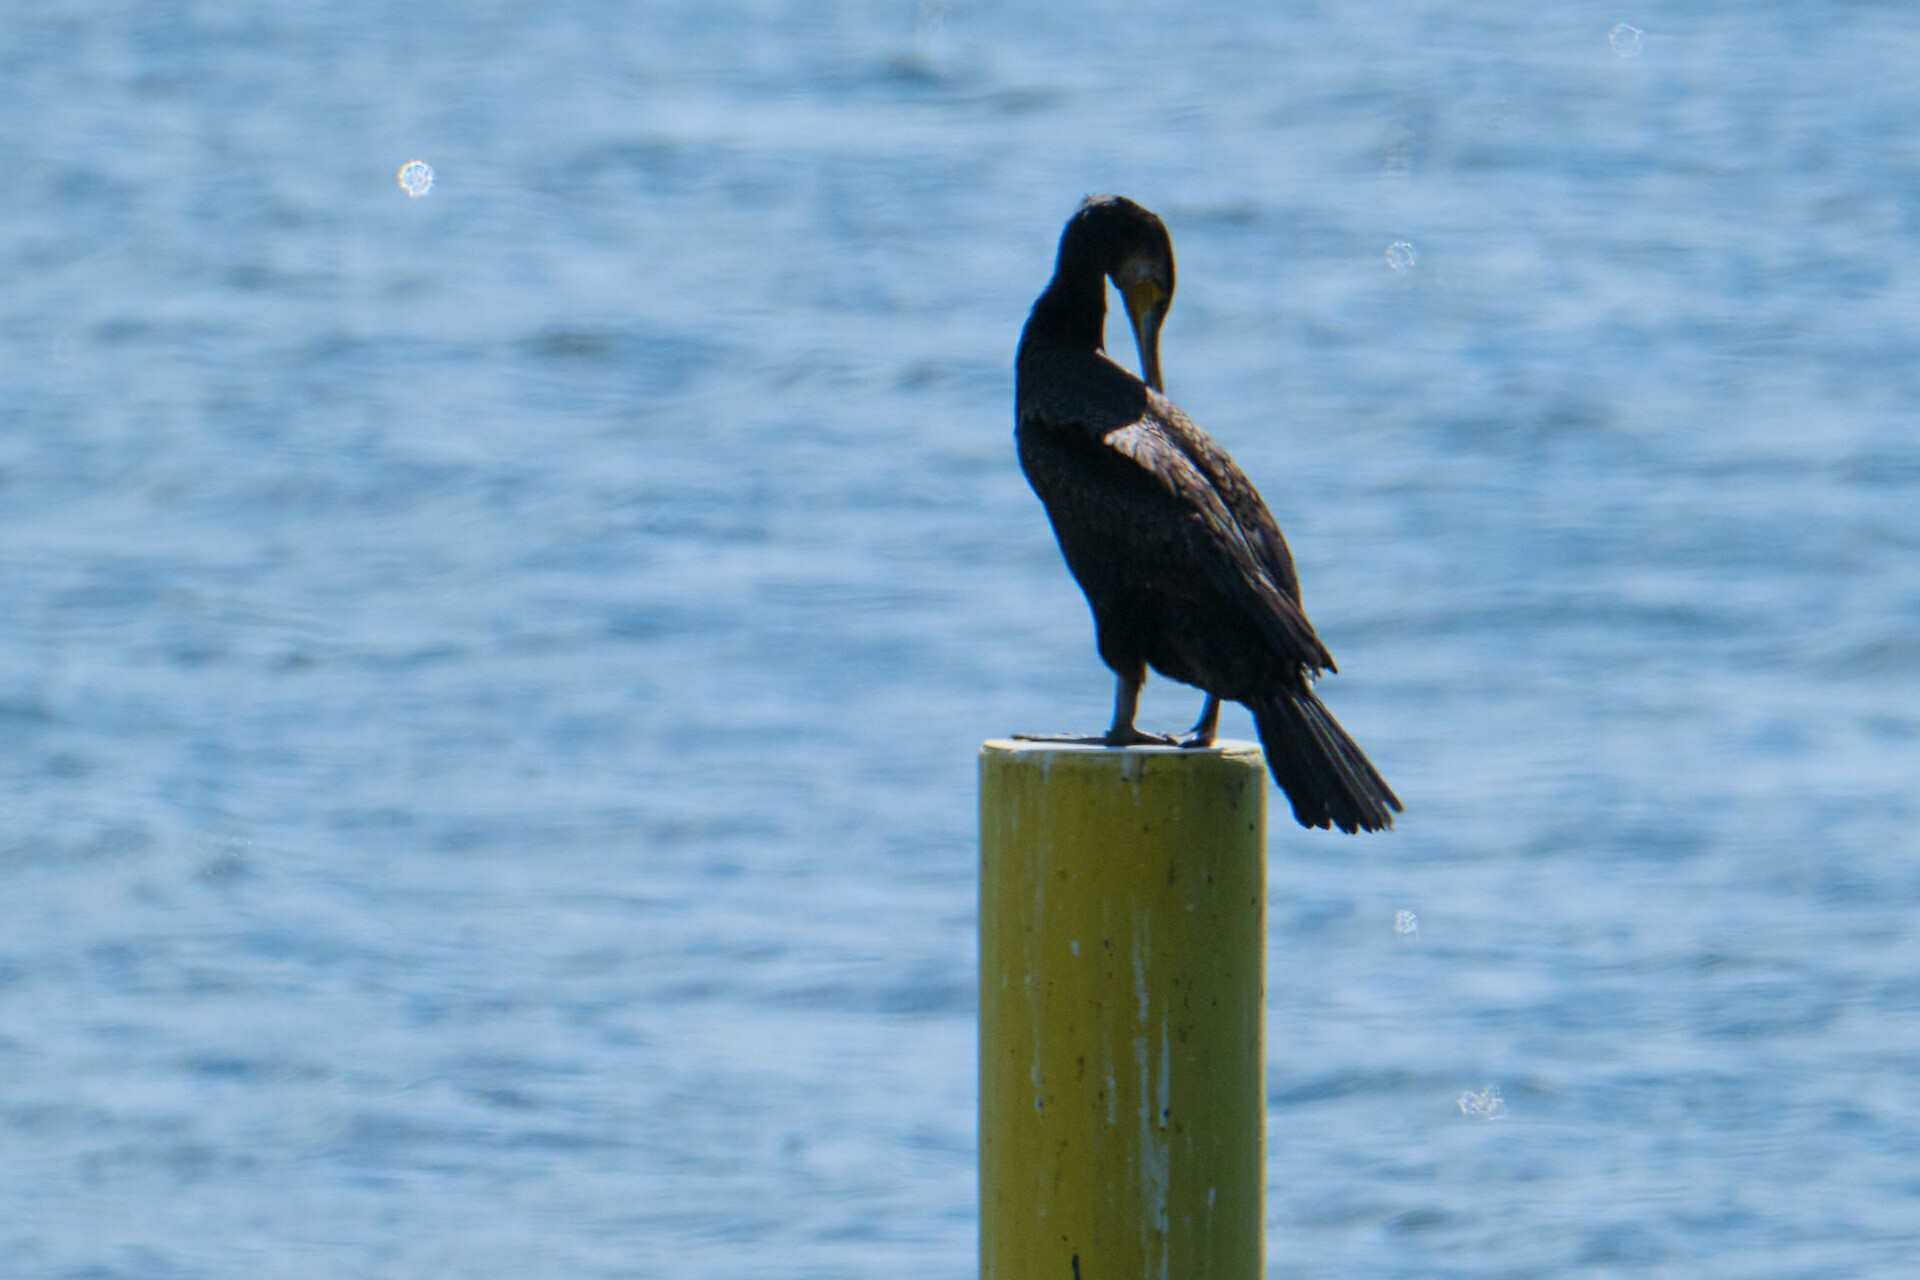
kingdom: Animalia
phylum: Chordata
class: Aves
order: Suliformes
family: Phalacrocoracidae
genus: Phalacrocorax
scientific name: Phalacrocorax carbo
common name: Great cormorant
